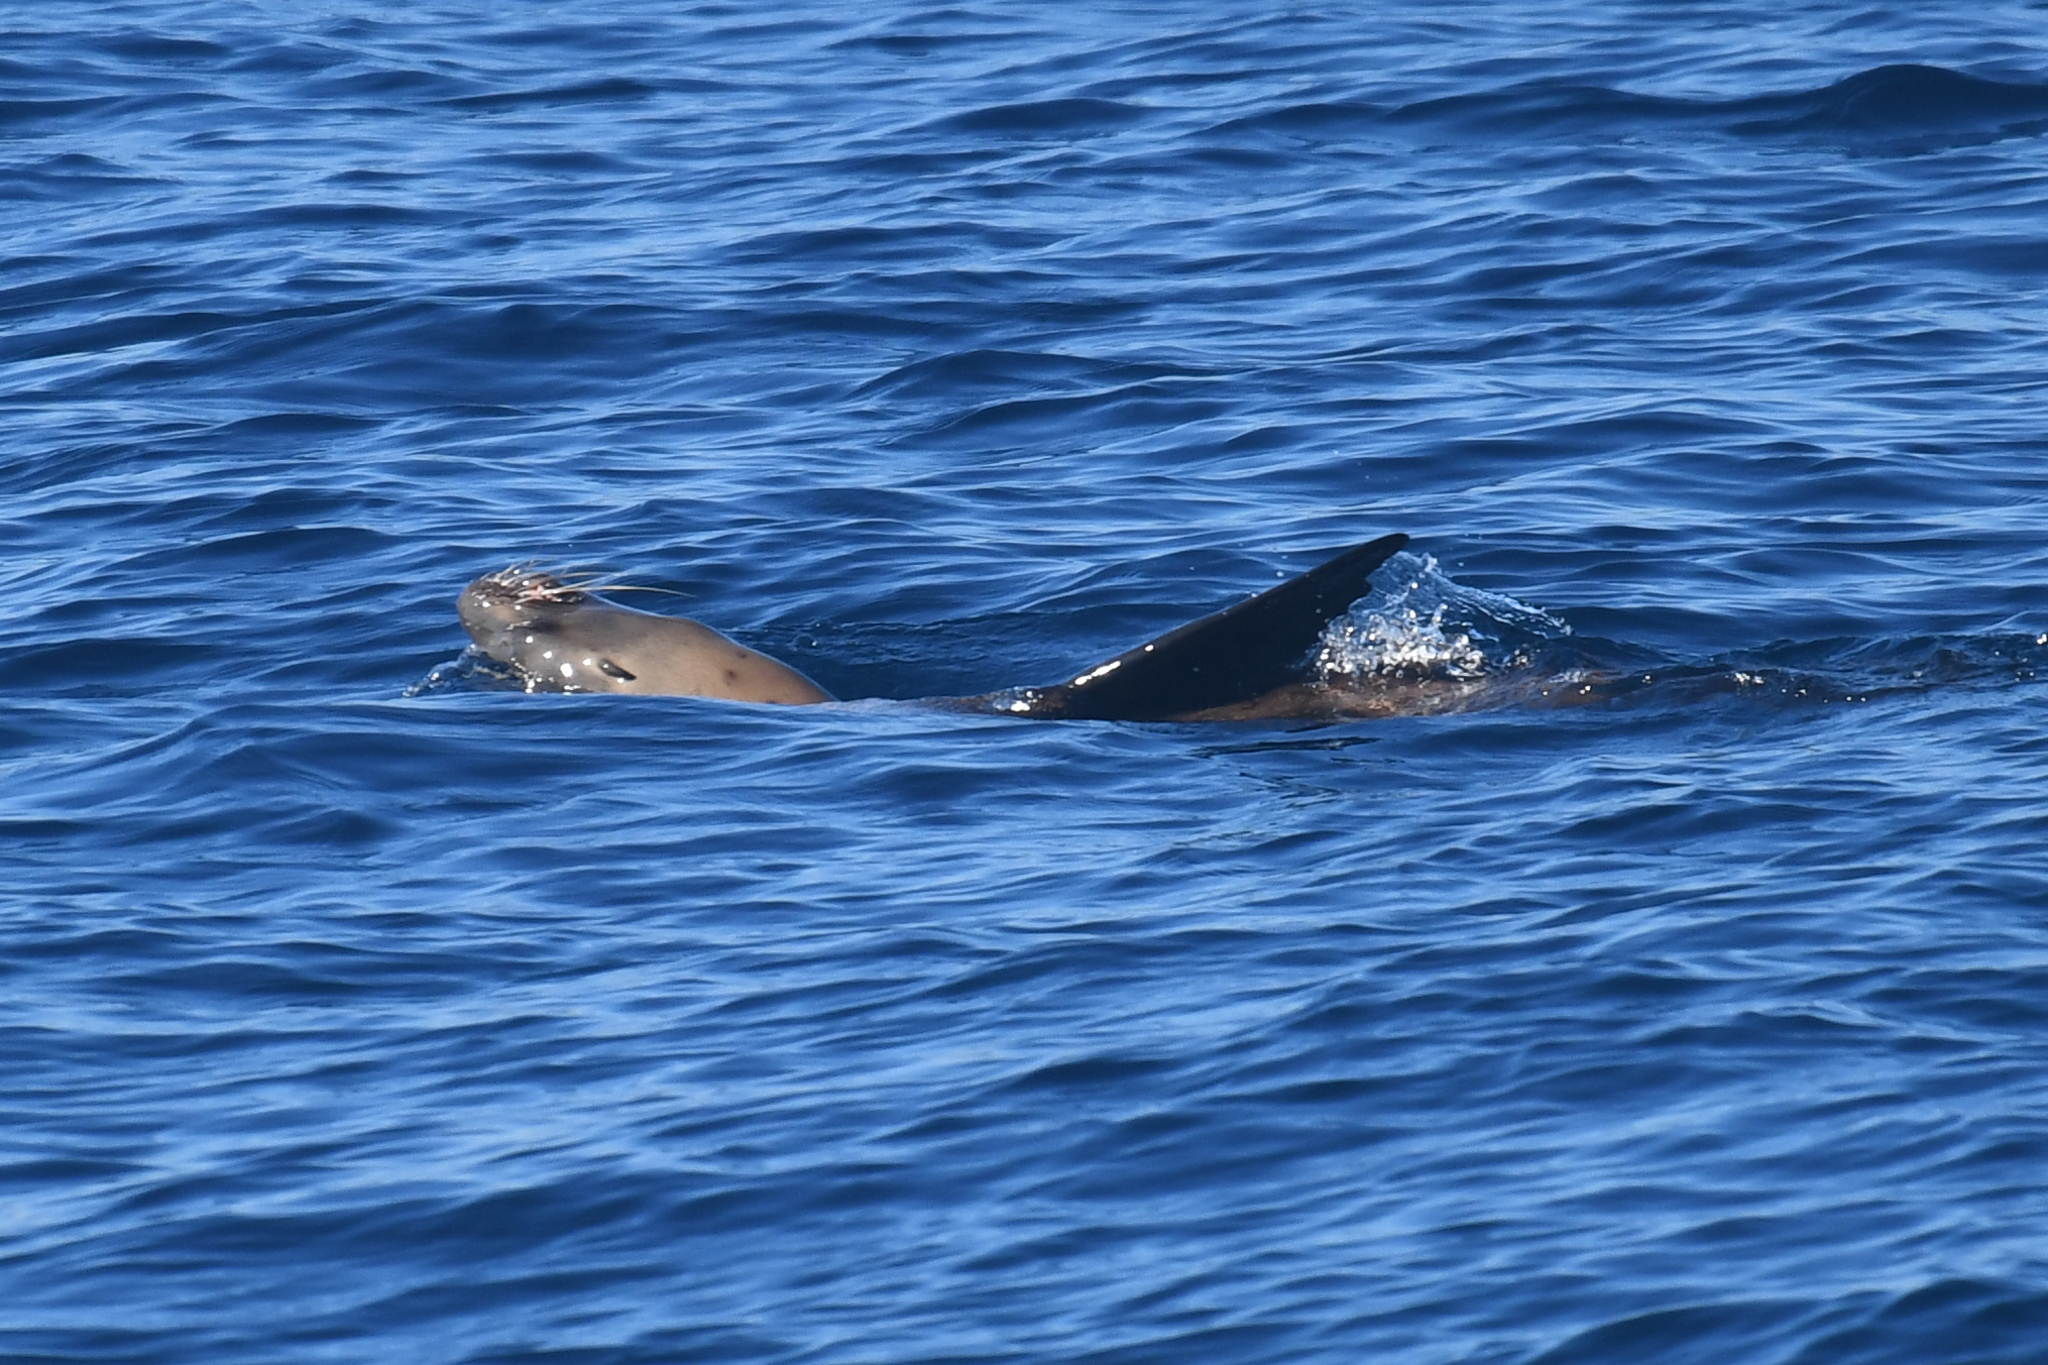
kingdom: Animalia
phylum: Chordata
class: Mammalia
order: Carnivora
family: Otariidae
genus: Zalophus
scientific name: Zalophus californianus
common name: California sea lion
